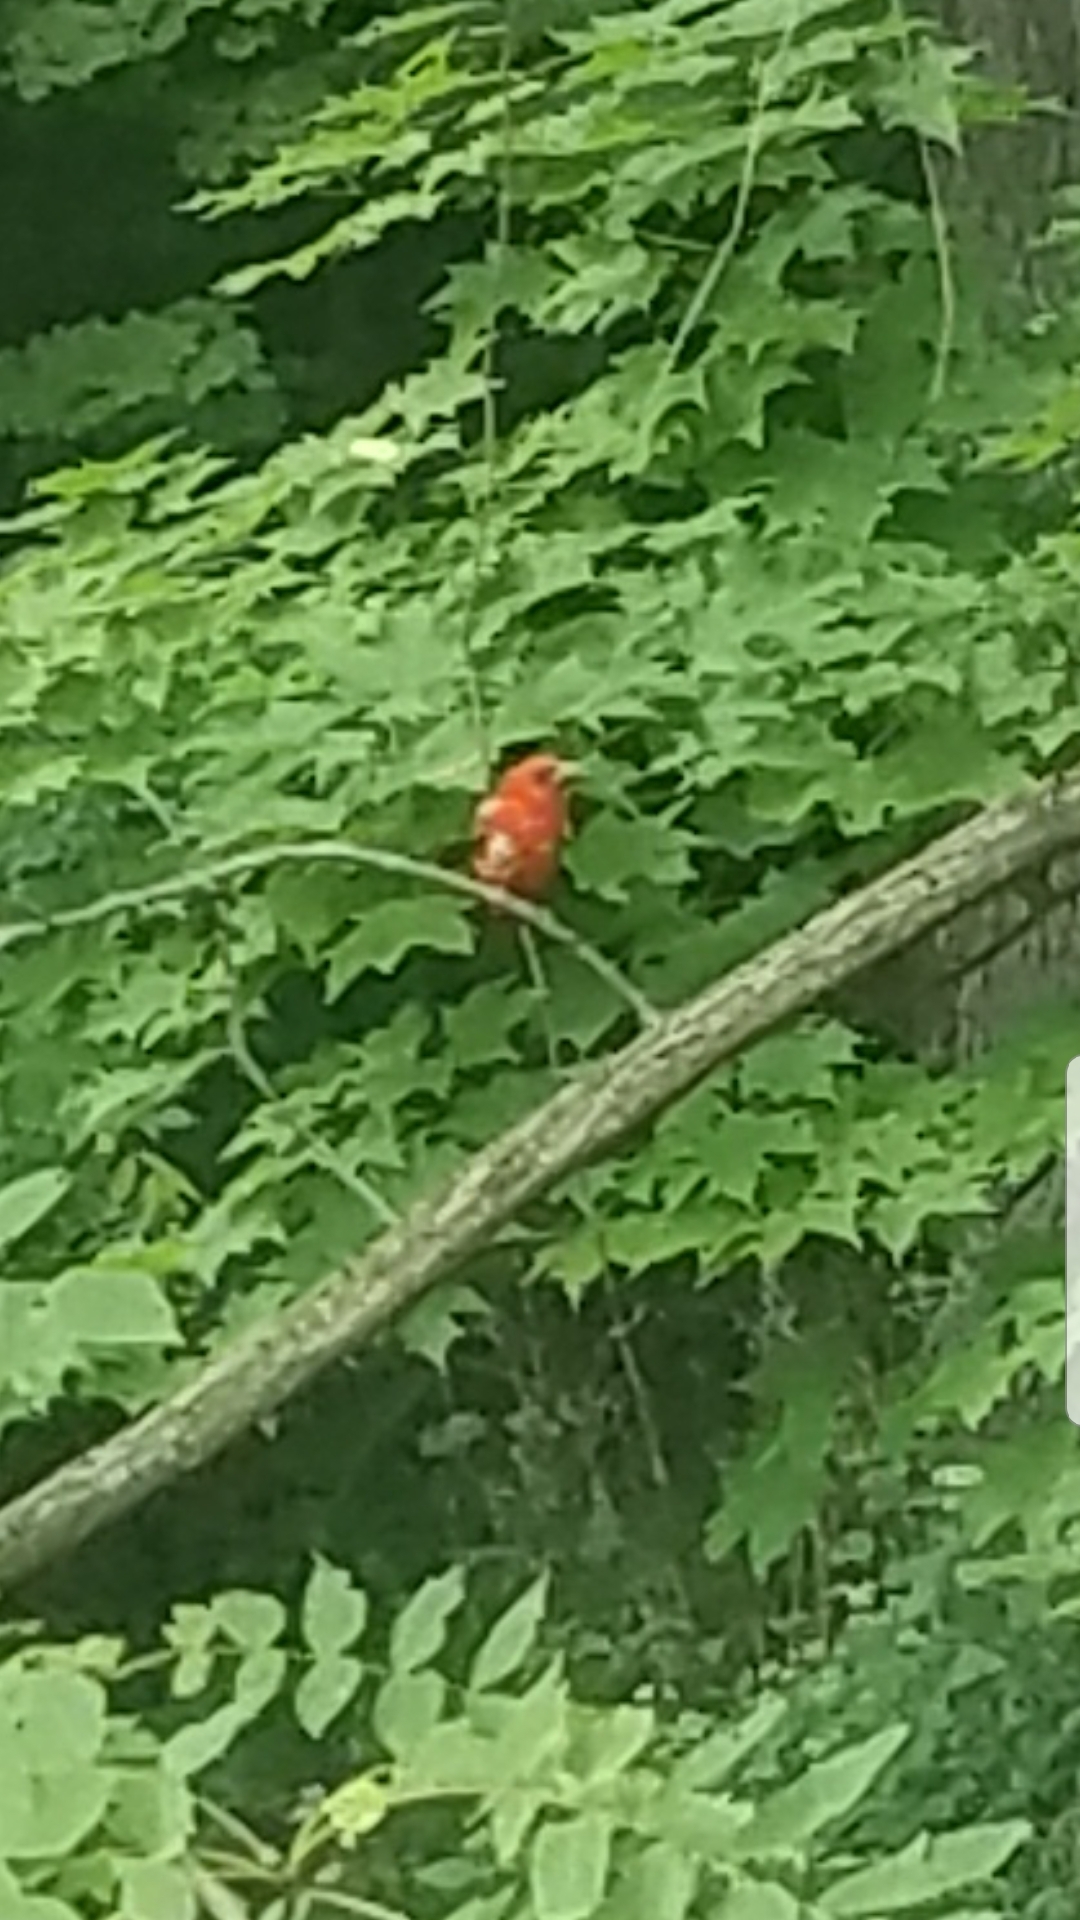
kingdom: Animalia
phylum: Chordata
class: Aves
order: Passeriformes
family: Cardinalidae
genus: Piranga
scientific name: Piranga olivacea
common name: Scarlet tanager
